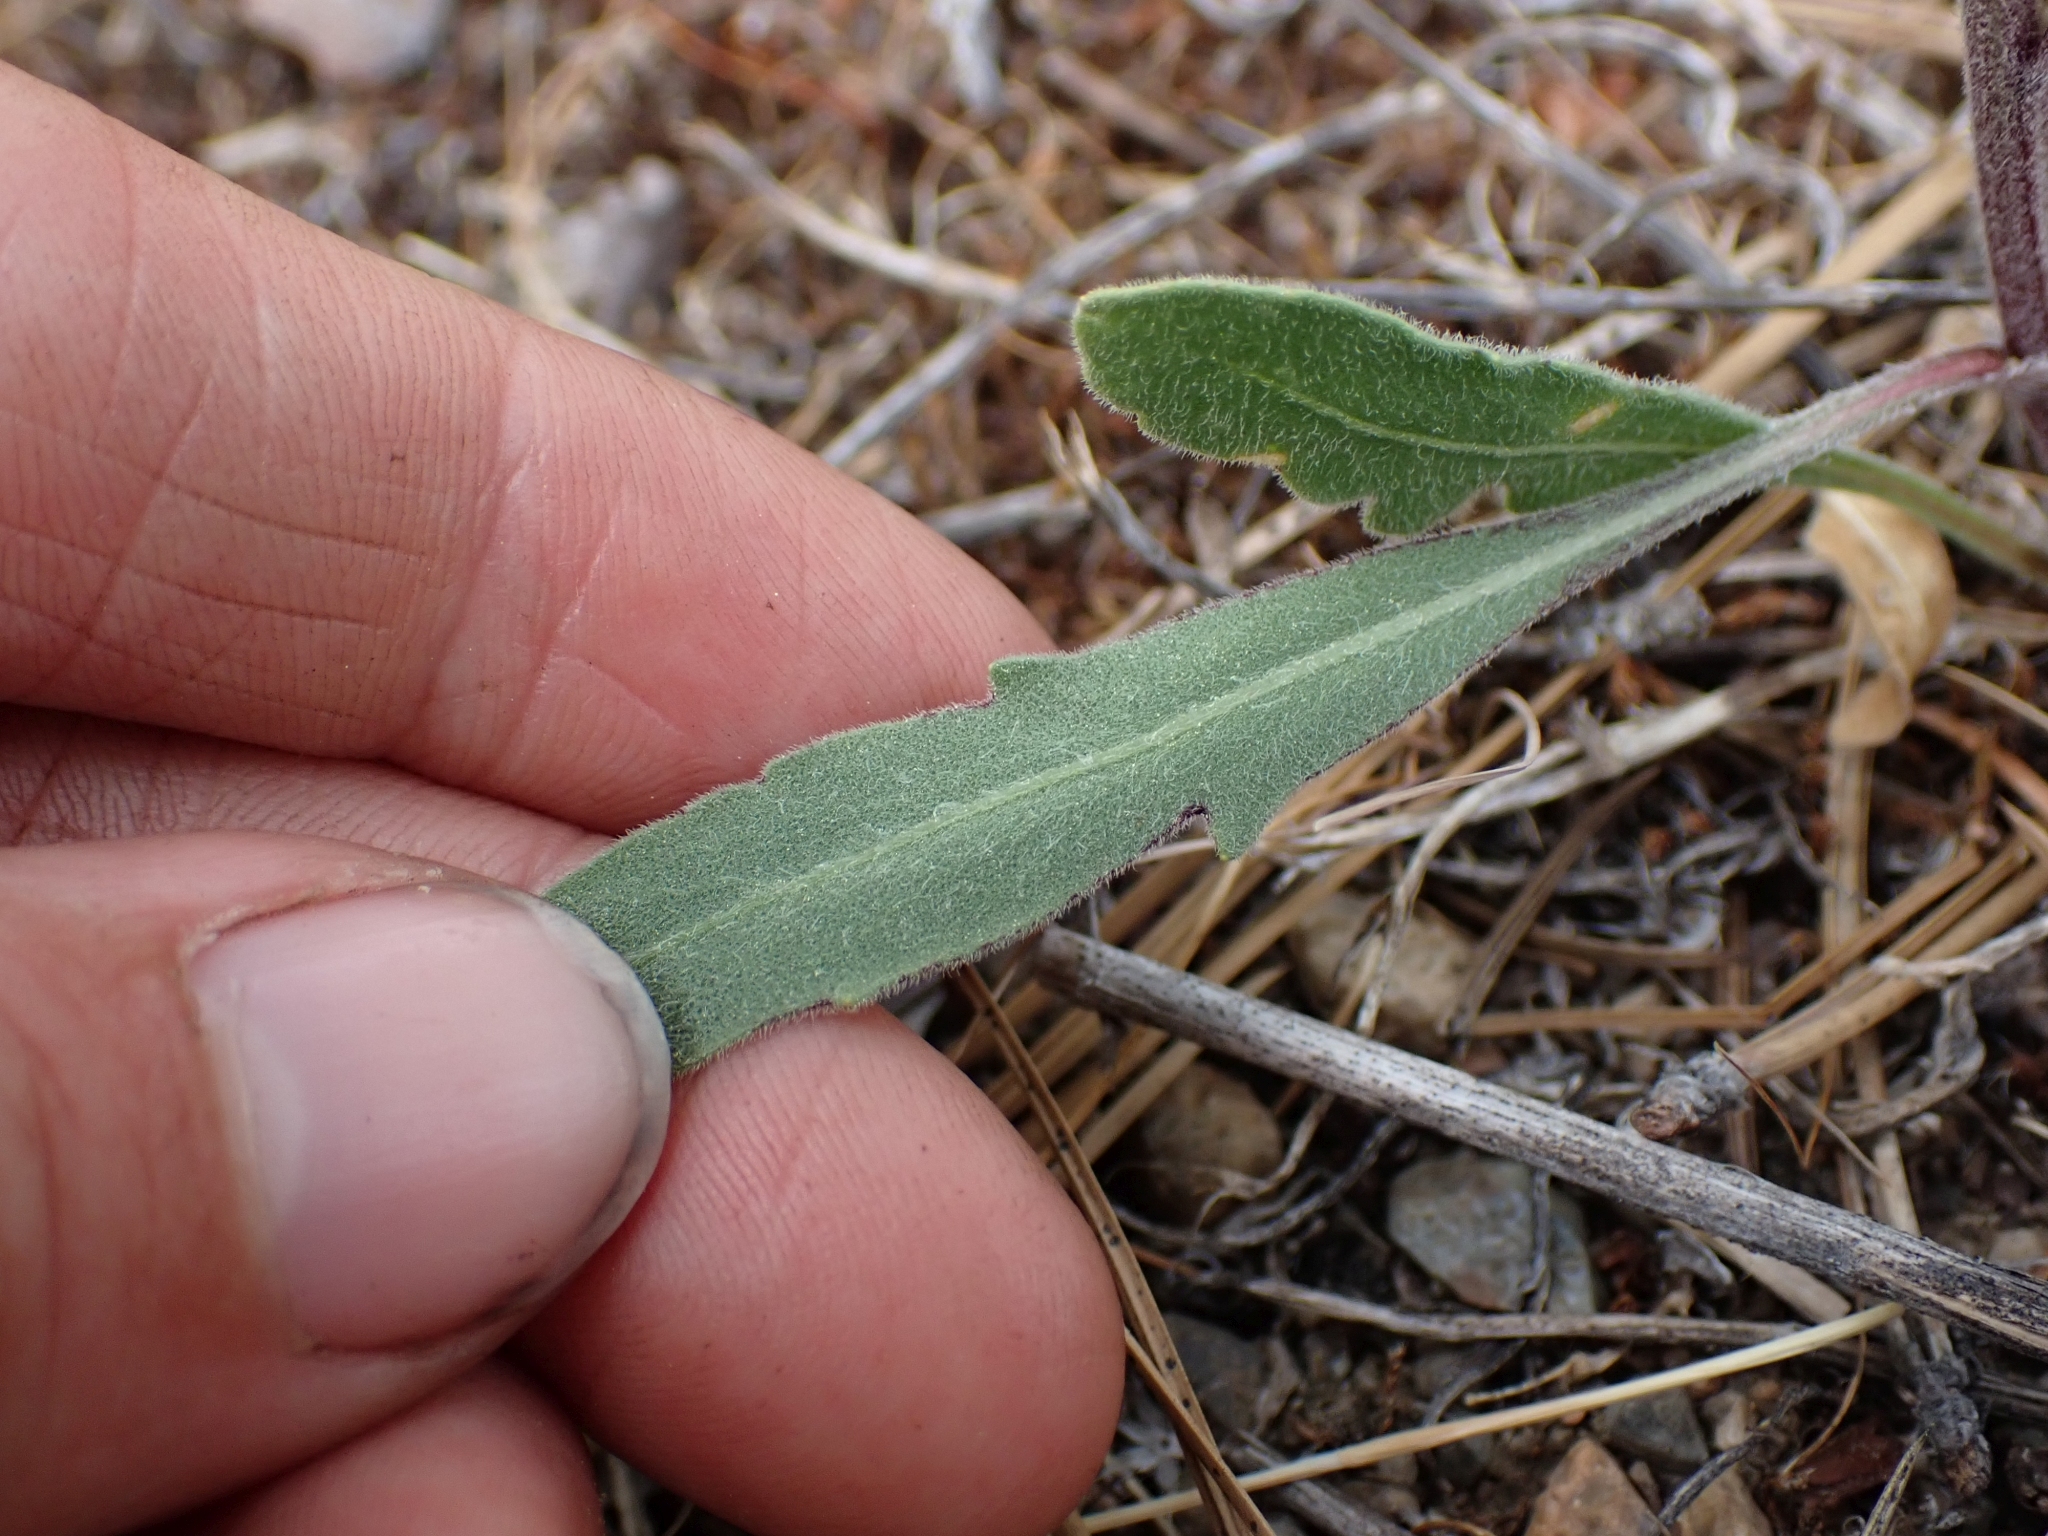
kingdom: Plantae
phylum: Tracheophyta
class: Magnoliopsida
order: Asterales
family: Asteraceae
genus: Gaillardia
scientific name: Gaillardia aristata
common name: Blanket-flower
